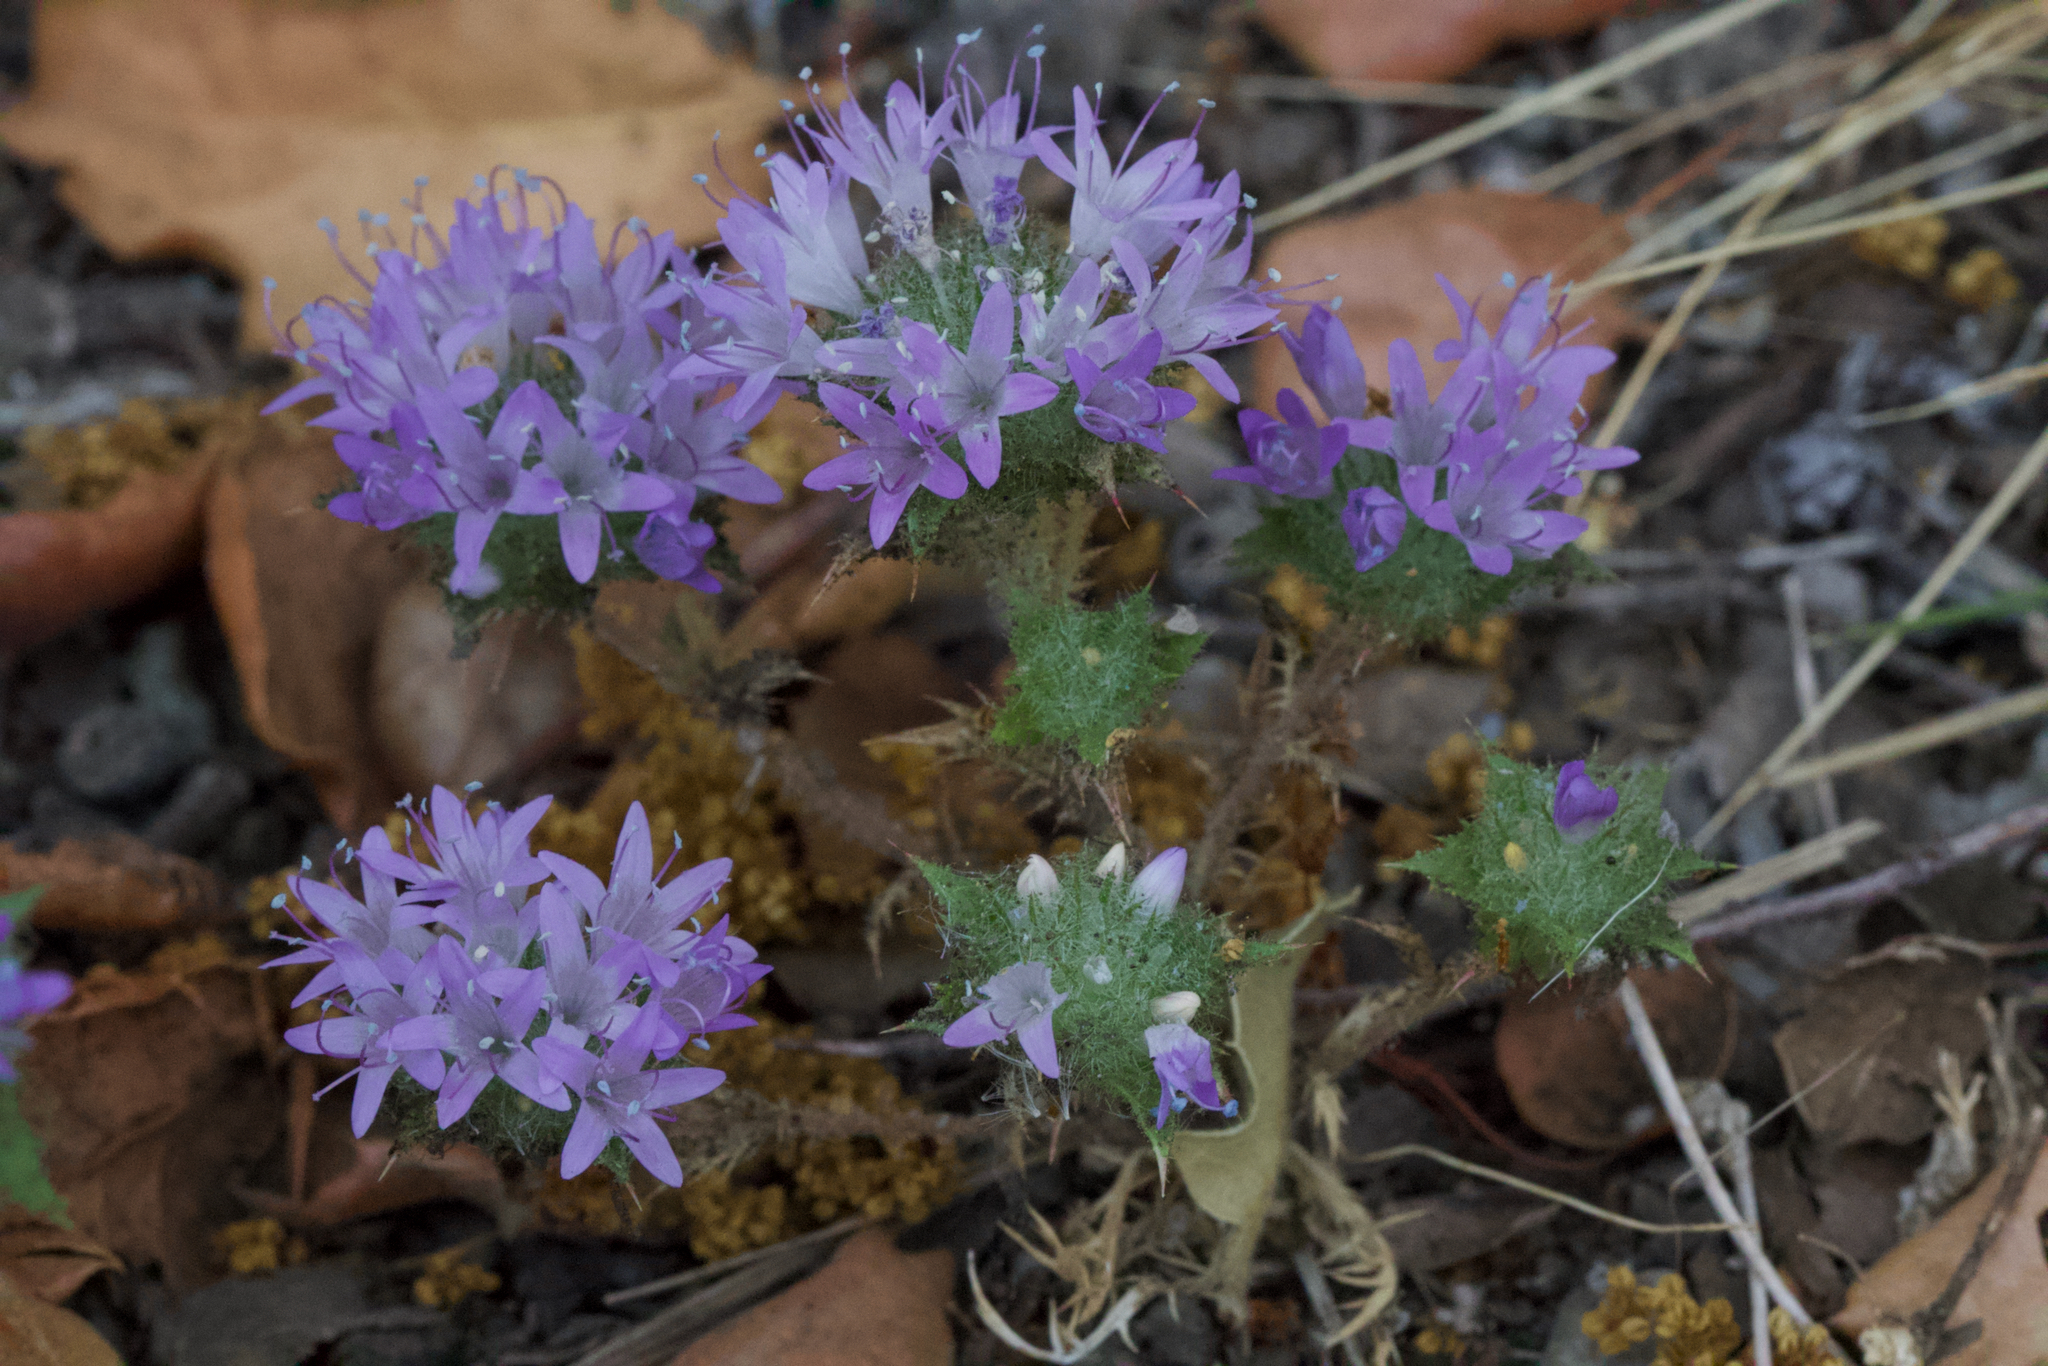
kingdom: Plantae
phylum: Tracheophyta
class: Magnoliopsida
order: Ericales
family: Polemoniaceae
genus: Navarretia
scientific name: Navarretia heterodoxa
